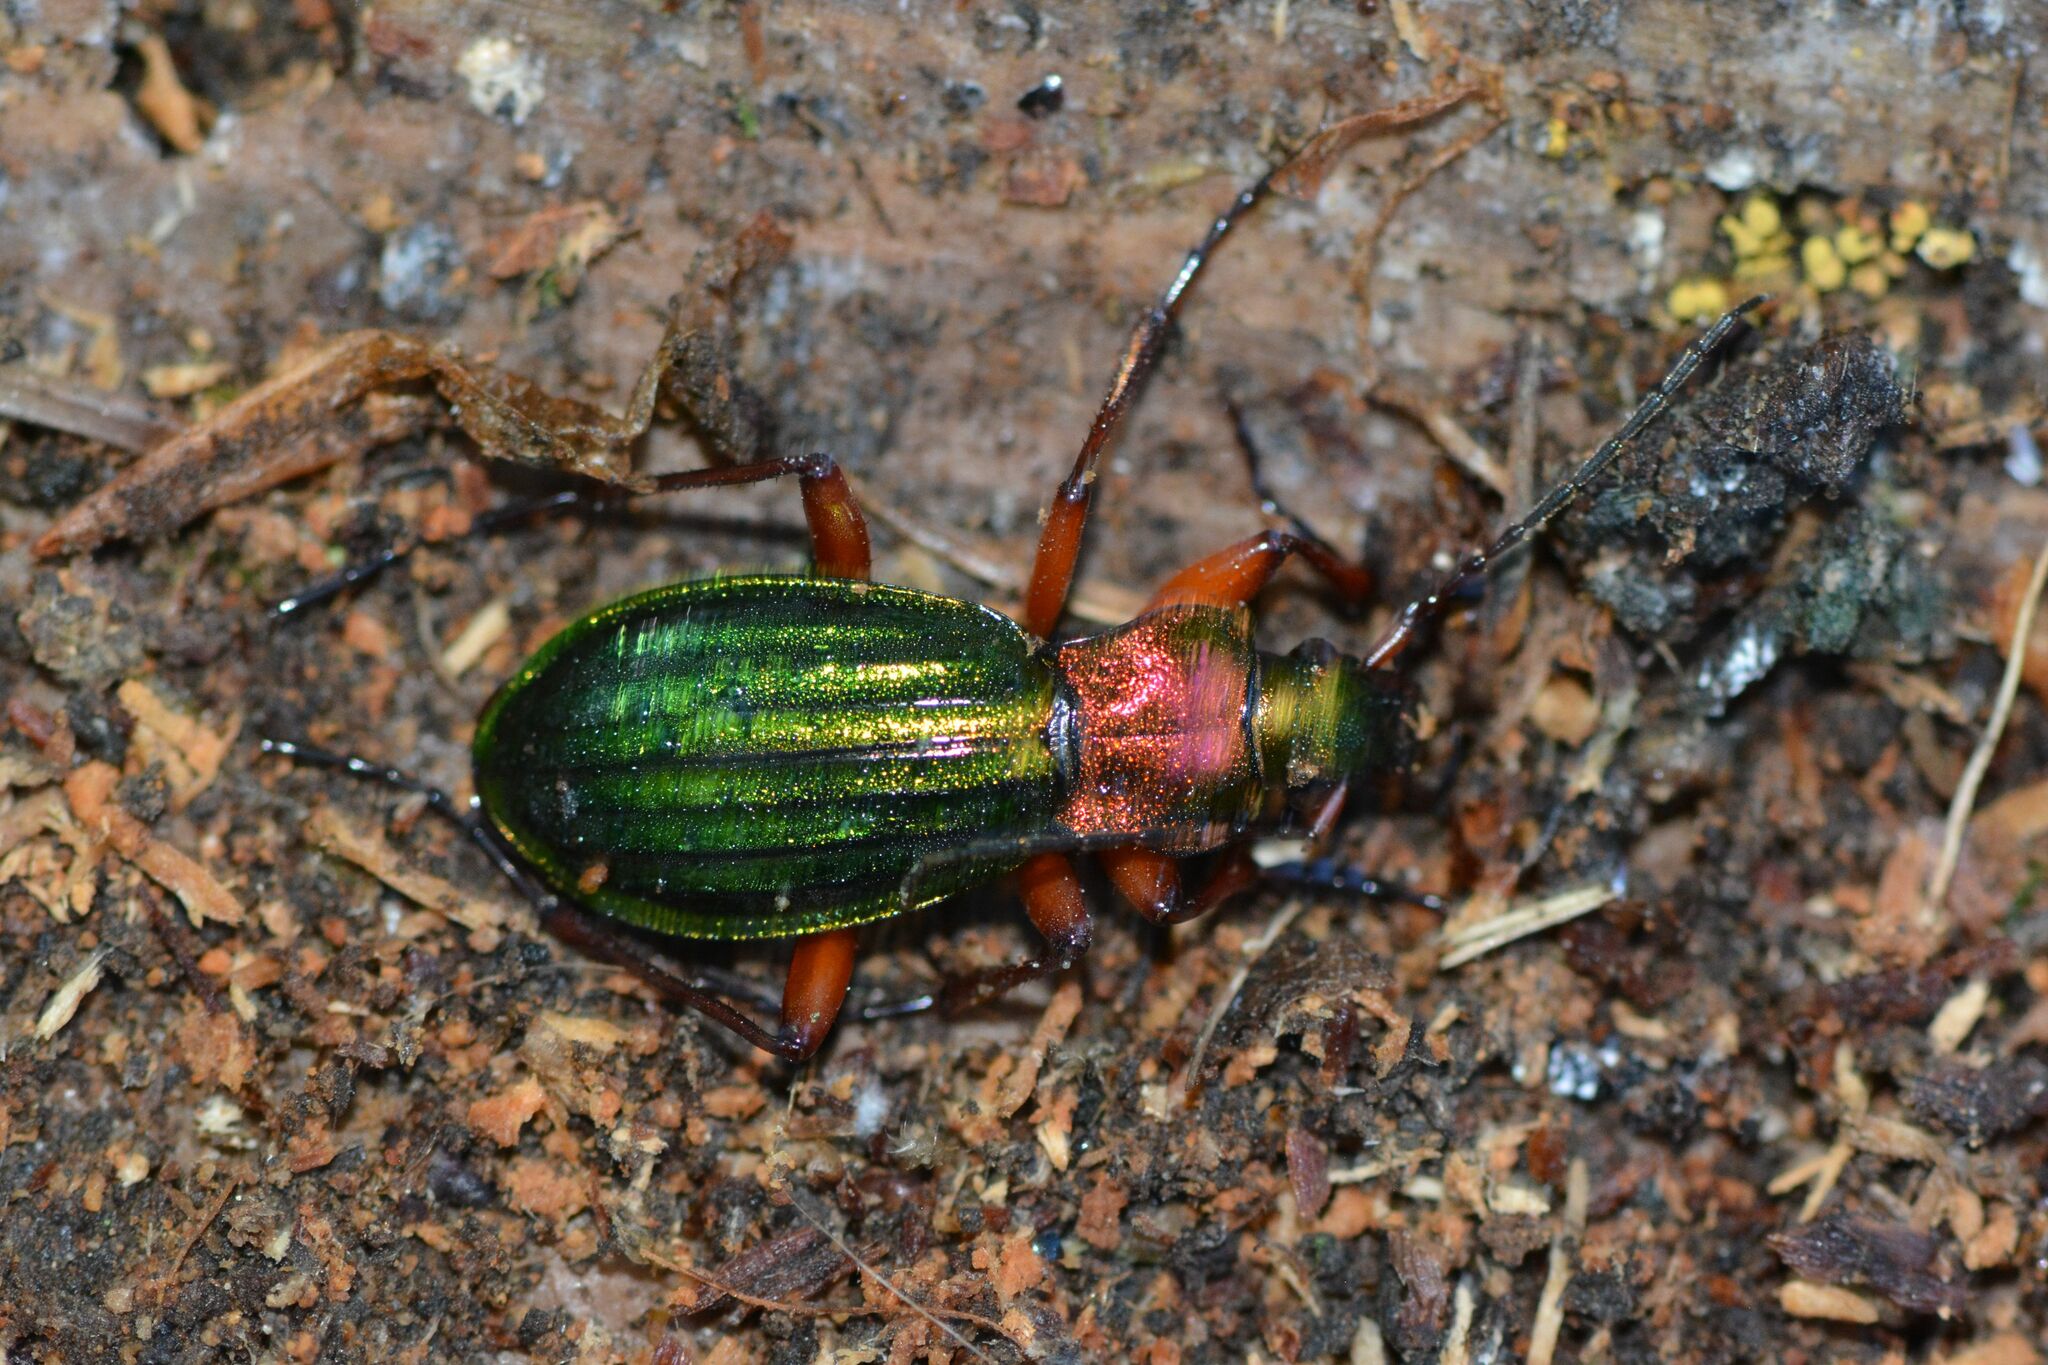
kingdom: Animalia
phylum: Arthropoda
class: Insecta
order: Coleoptera
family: Carabidae
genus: Carabus
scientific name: Carabus auronitens
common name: Carabus auronitens
